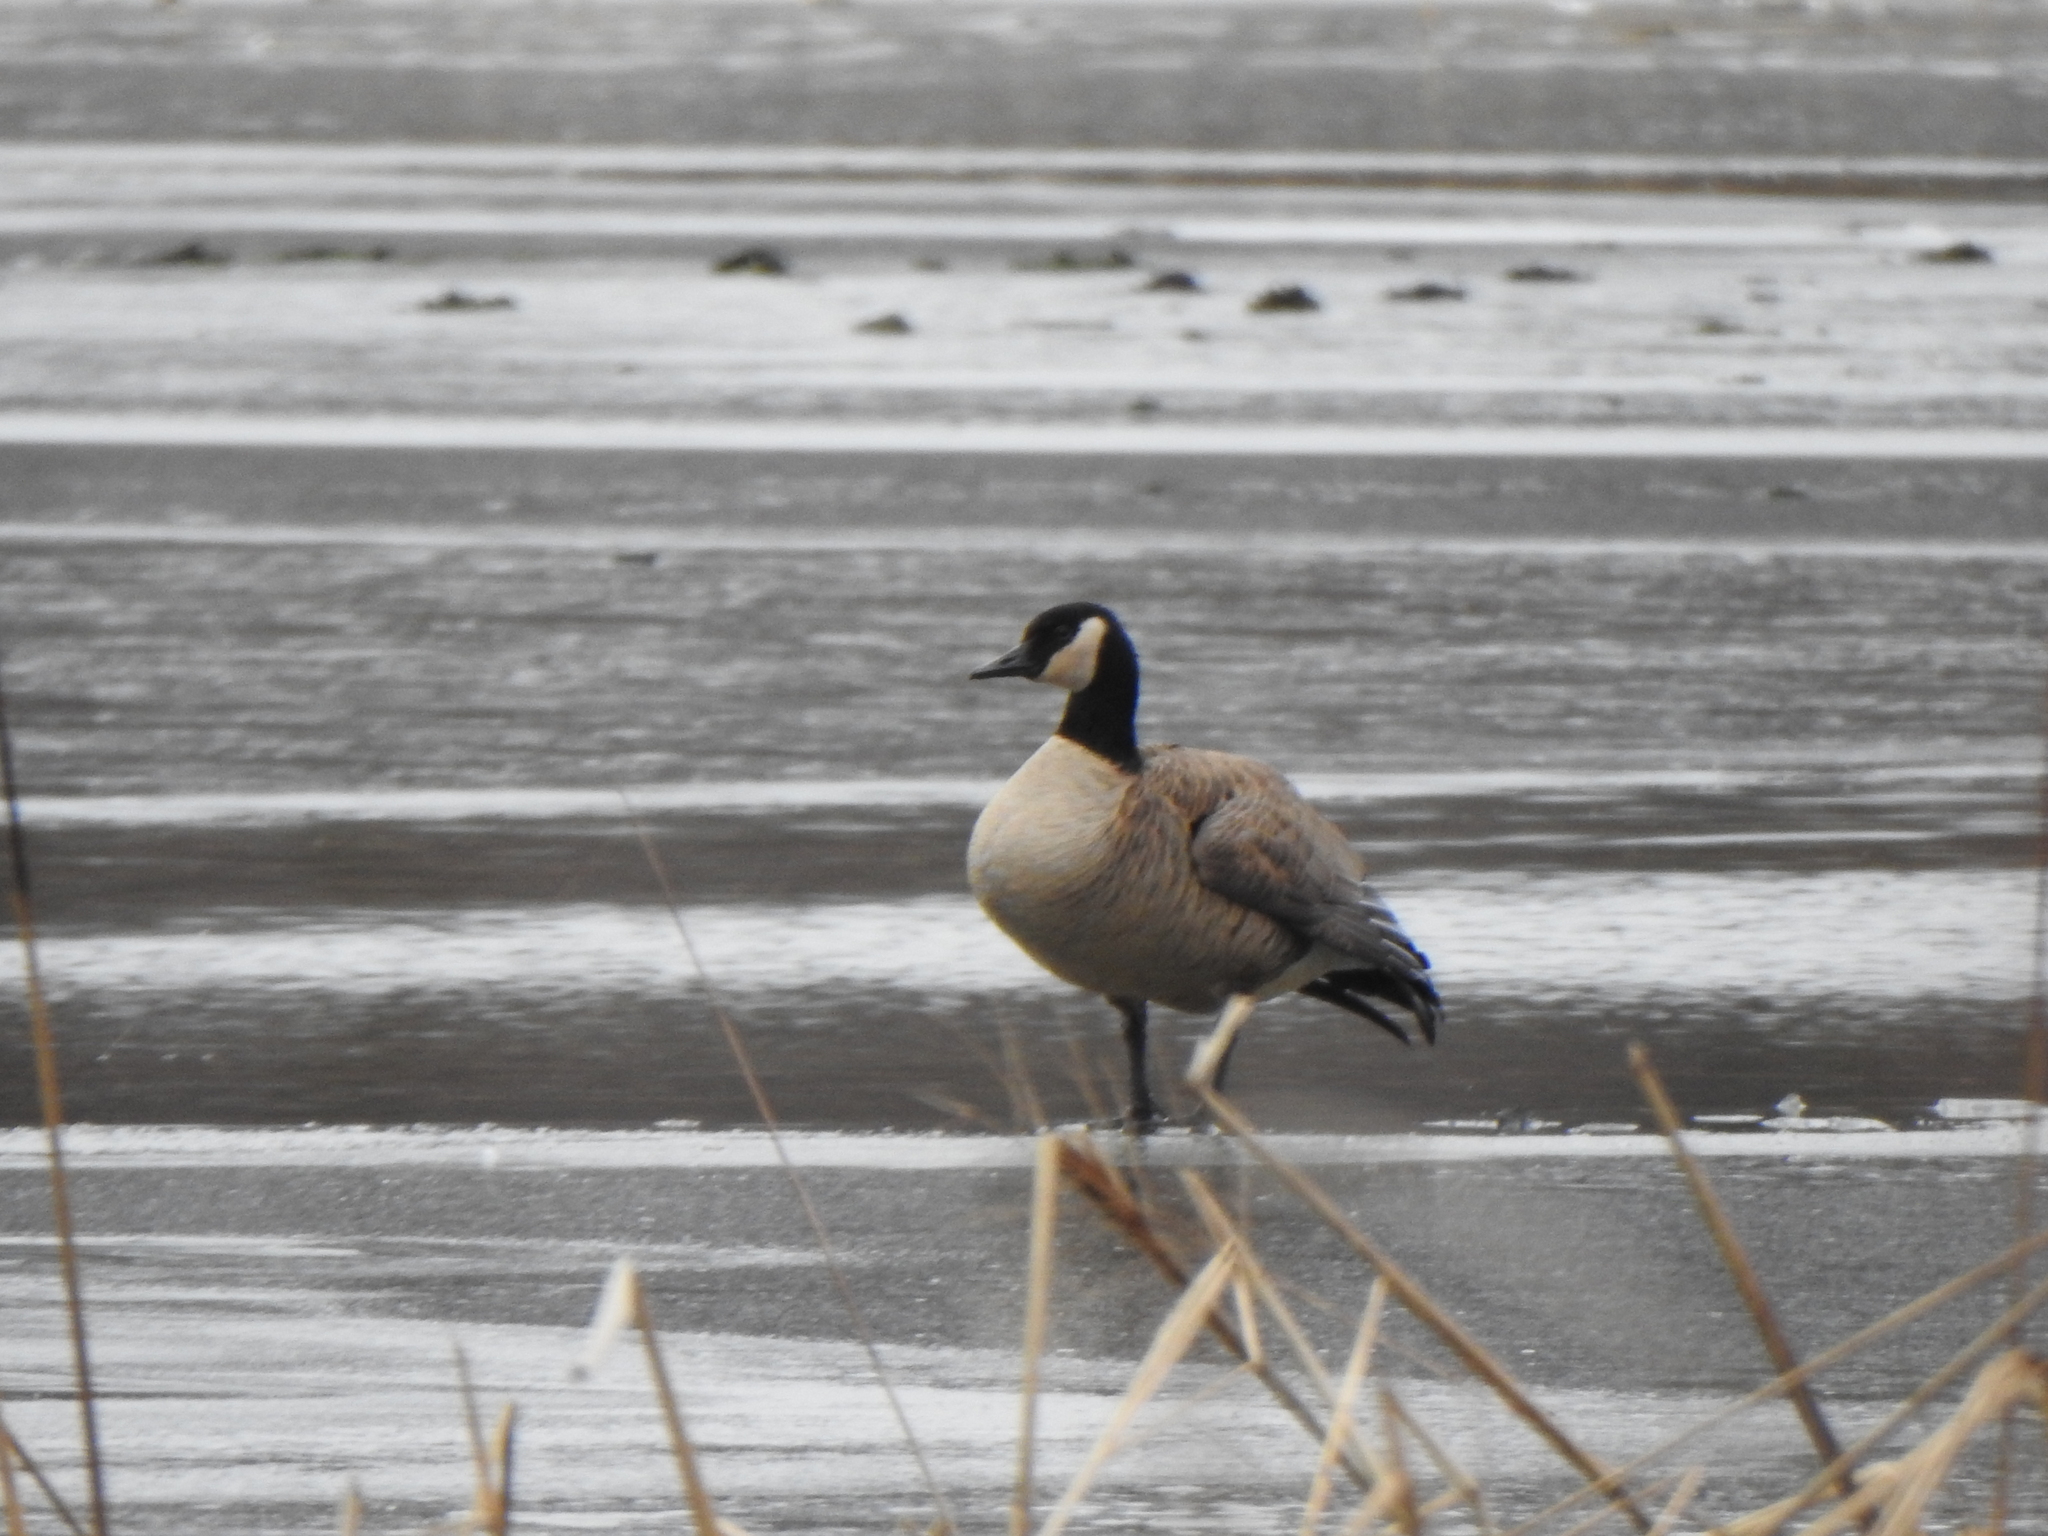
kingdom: Animalia
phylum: Chordata
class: Aves
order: Anseriformes
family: Anatidae
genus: Branta
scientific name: Branta canadensis
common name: Canada goose
